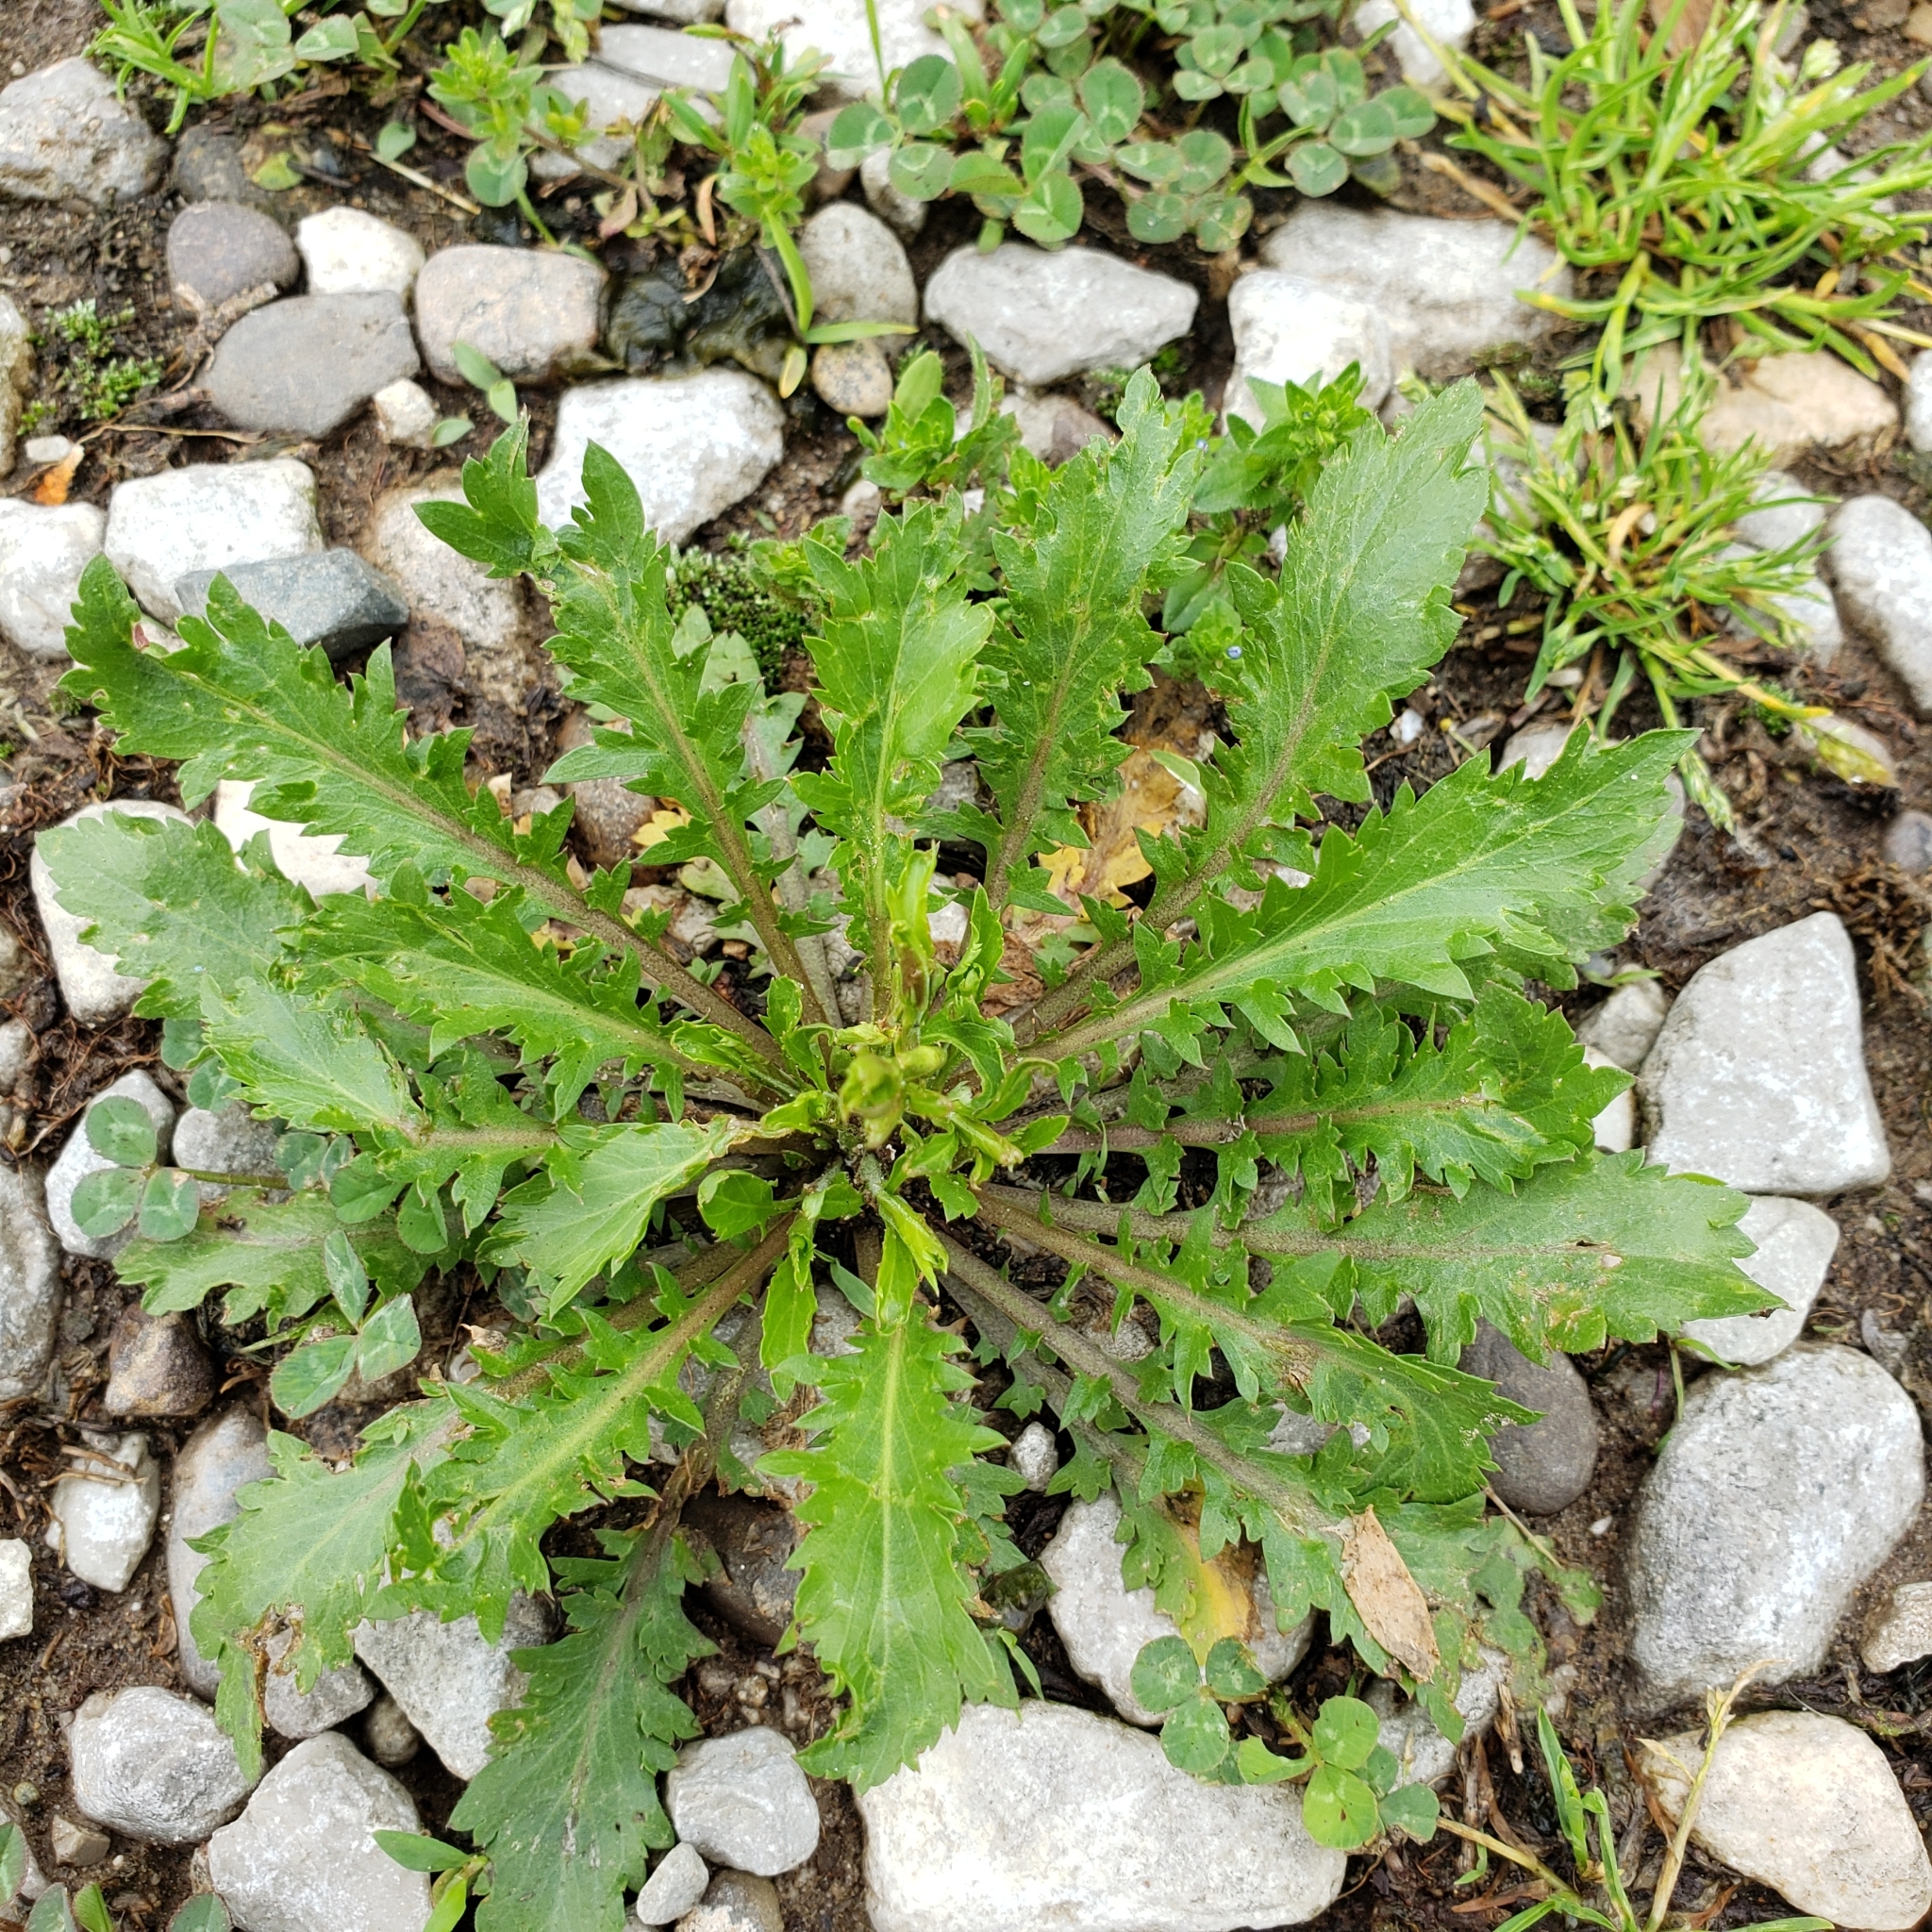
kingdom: Plantae
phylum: Tracheophyta
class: Magnoliopsida
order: Brassicales
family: Brassicaceae
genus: Lepidium
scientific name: Lepidium virginicum
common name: Least pepperwort
